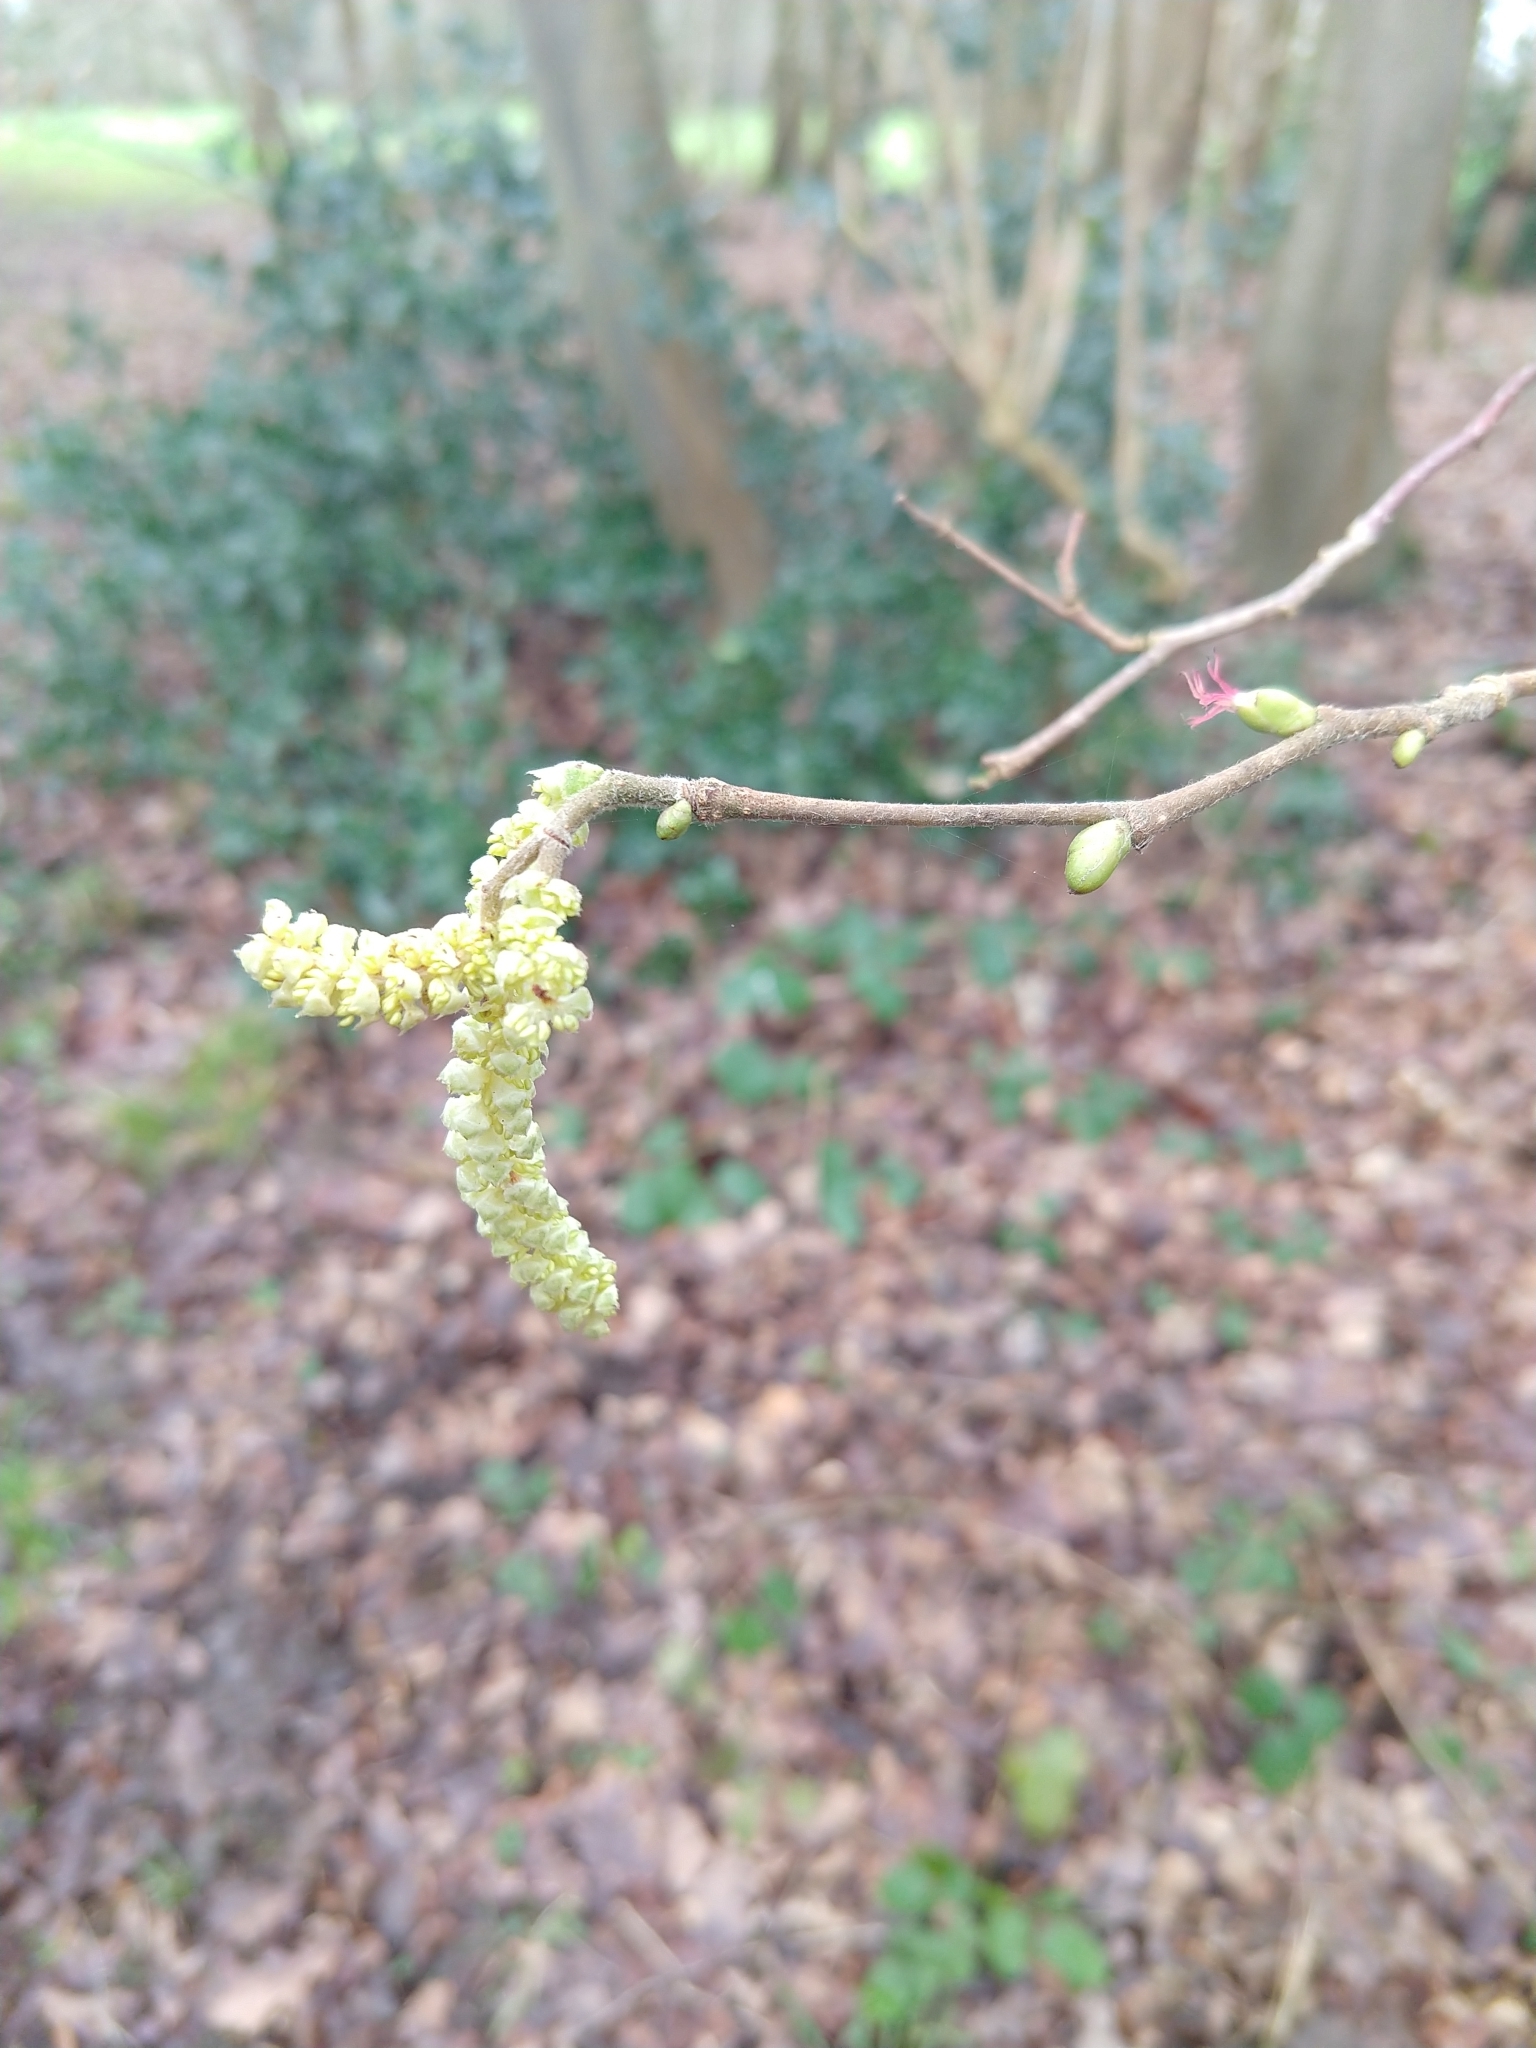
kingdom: Plantae
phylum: Tracheophyta
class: Magnoliopsida
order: Fagales
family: Betulaceae
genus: Corylus
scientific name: Corylus avellana
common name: European hazel
